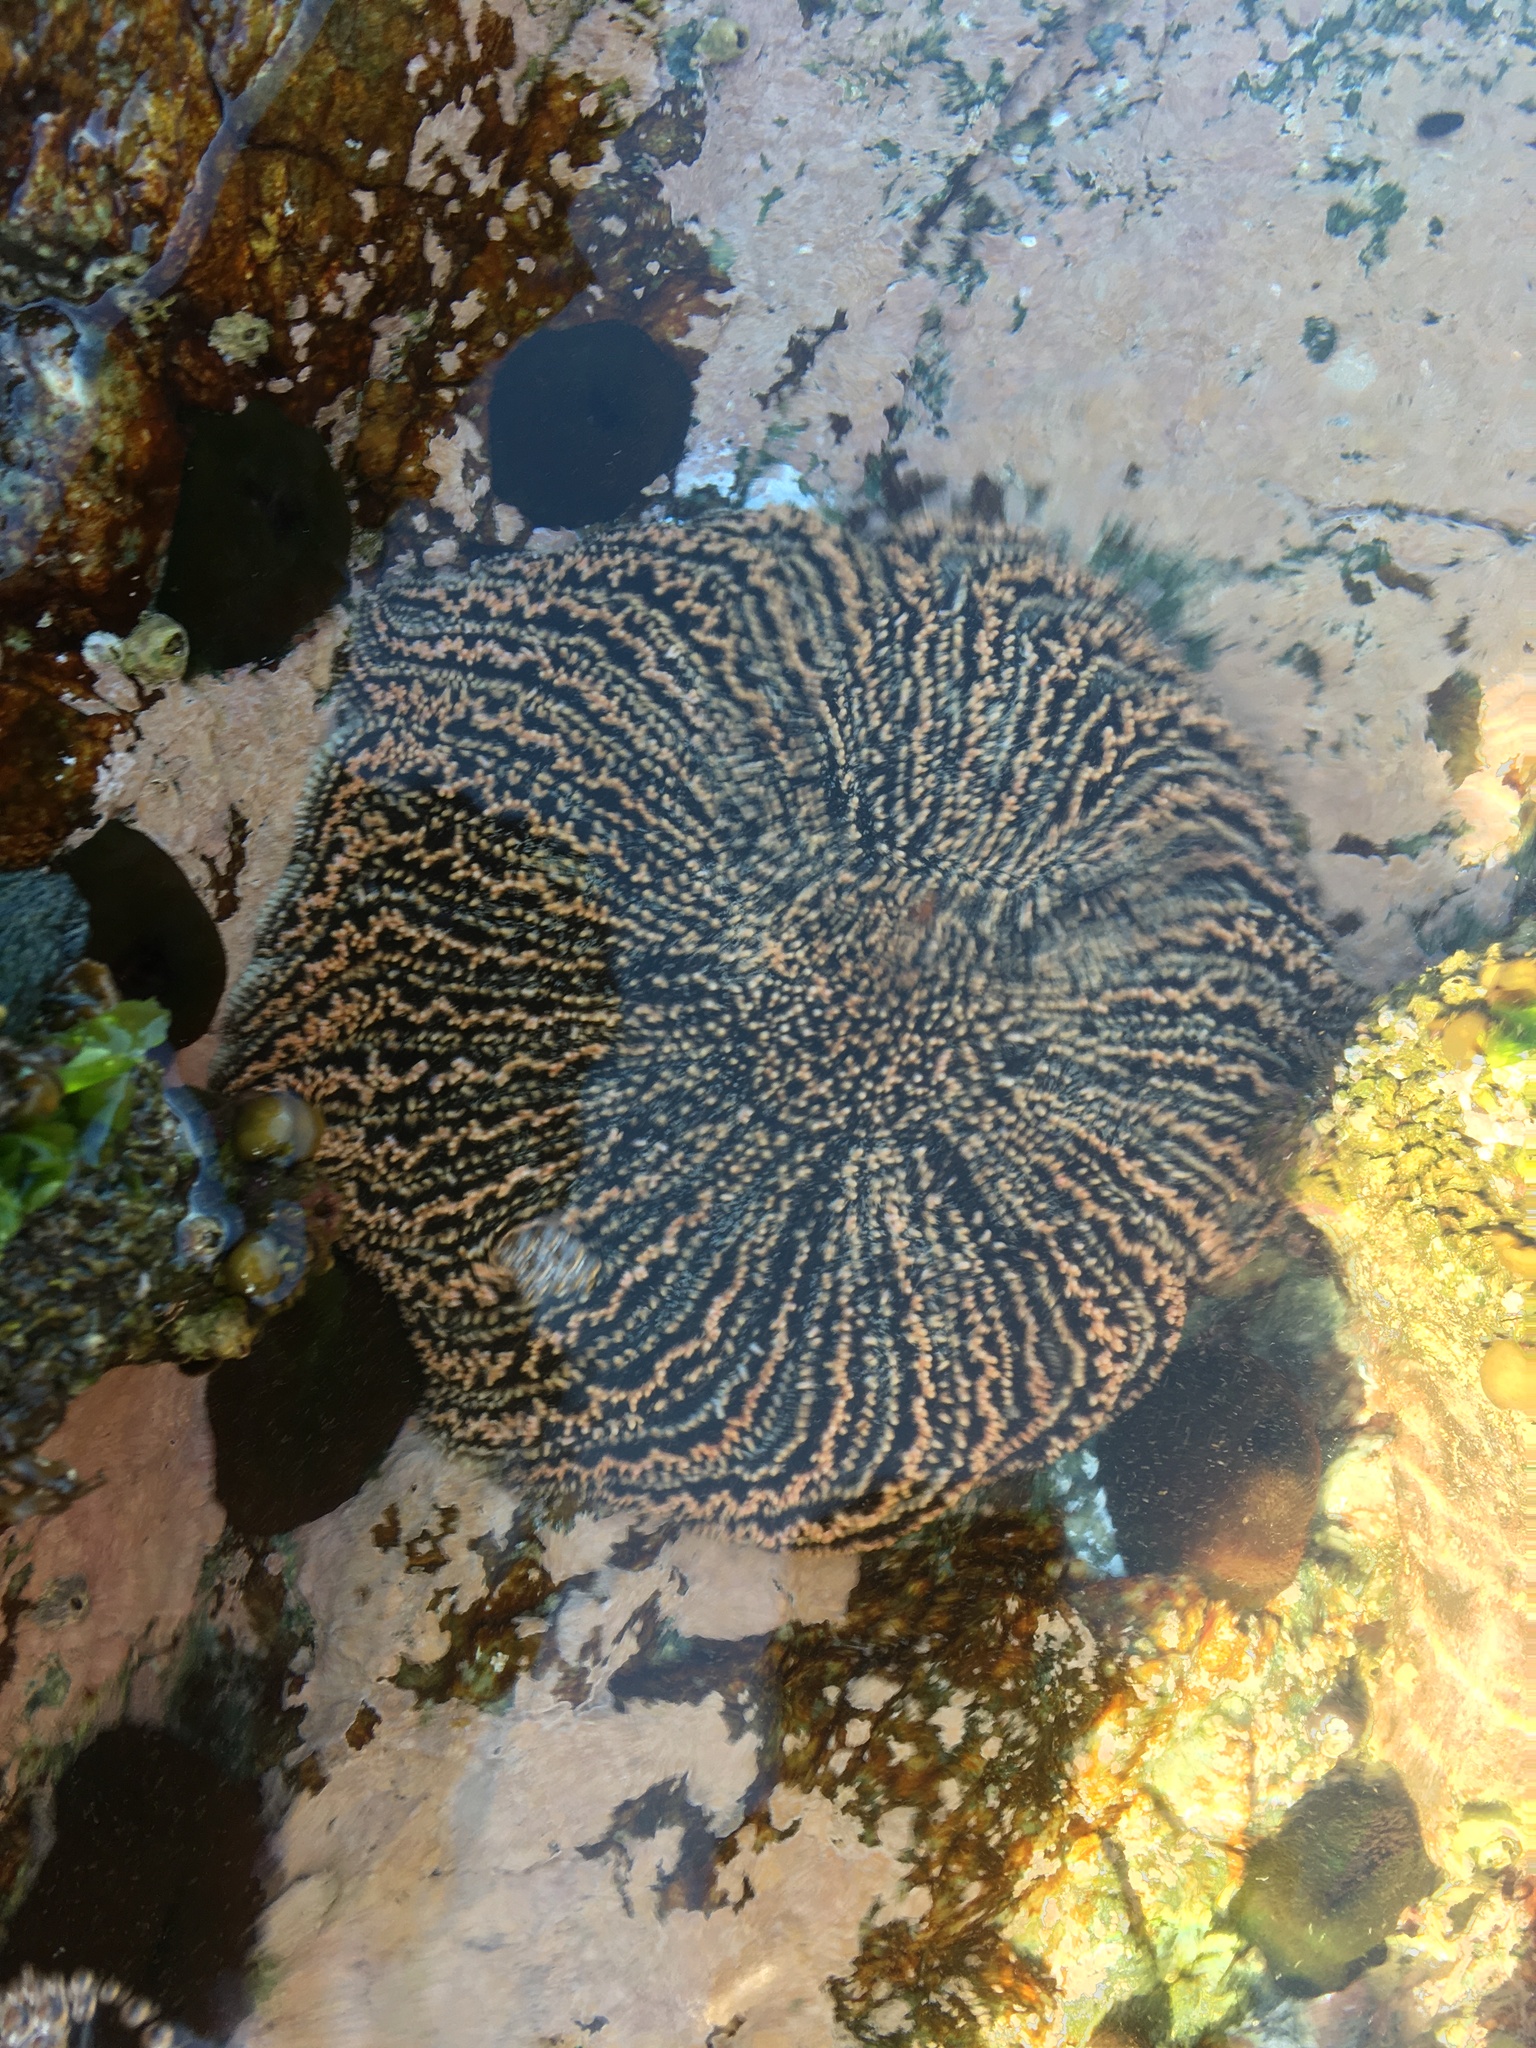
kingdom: Animalia
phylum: Echinodermata
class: Asteroidea
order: Forcipulatida
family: Heliasteridae
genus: Heliaster
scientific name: Heliaster helianthus
